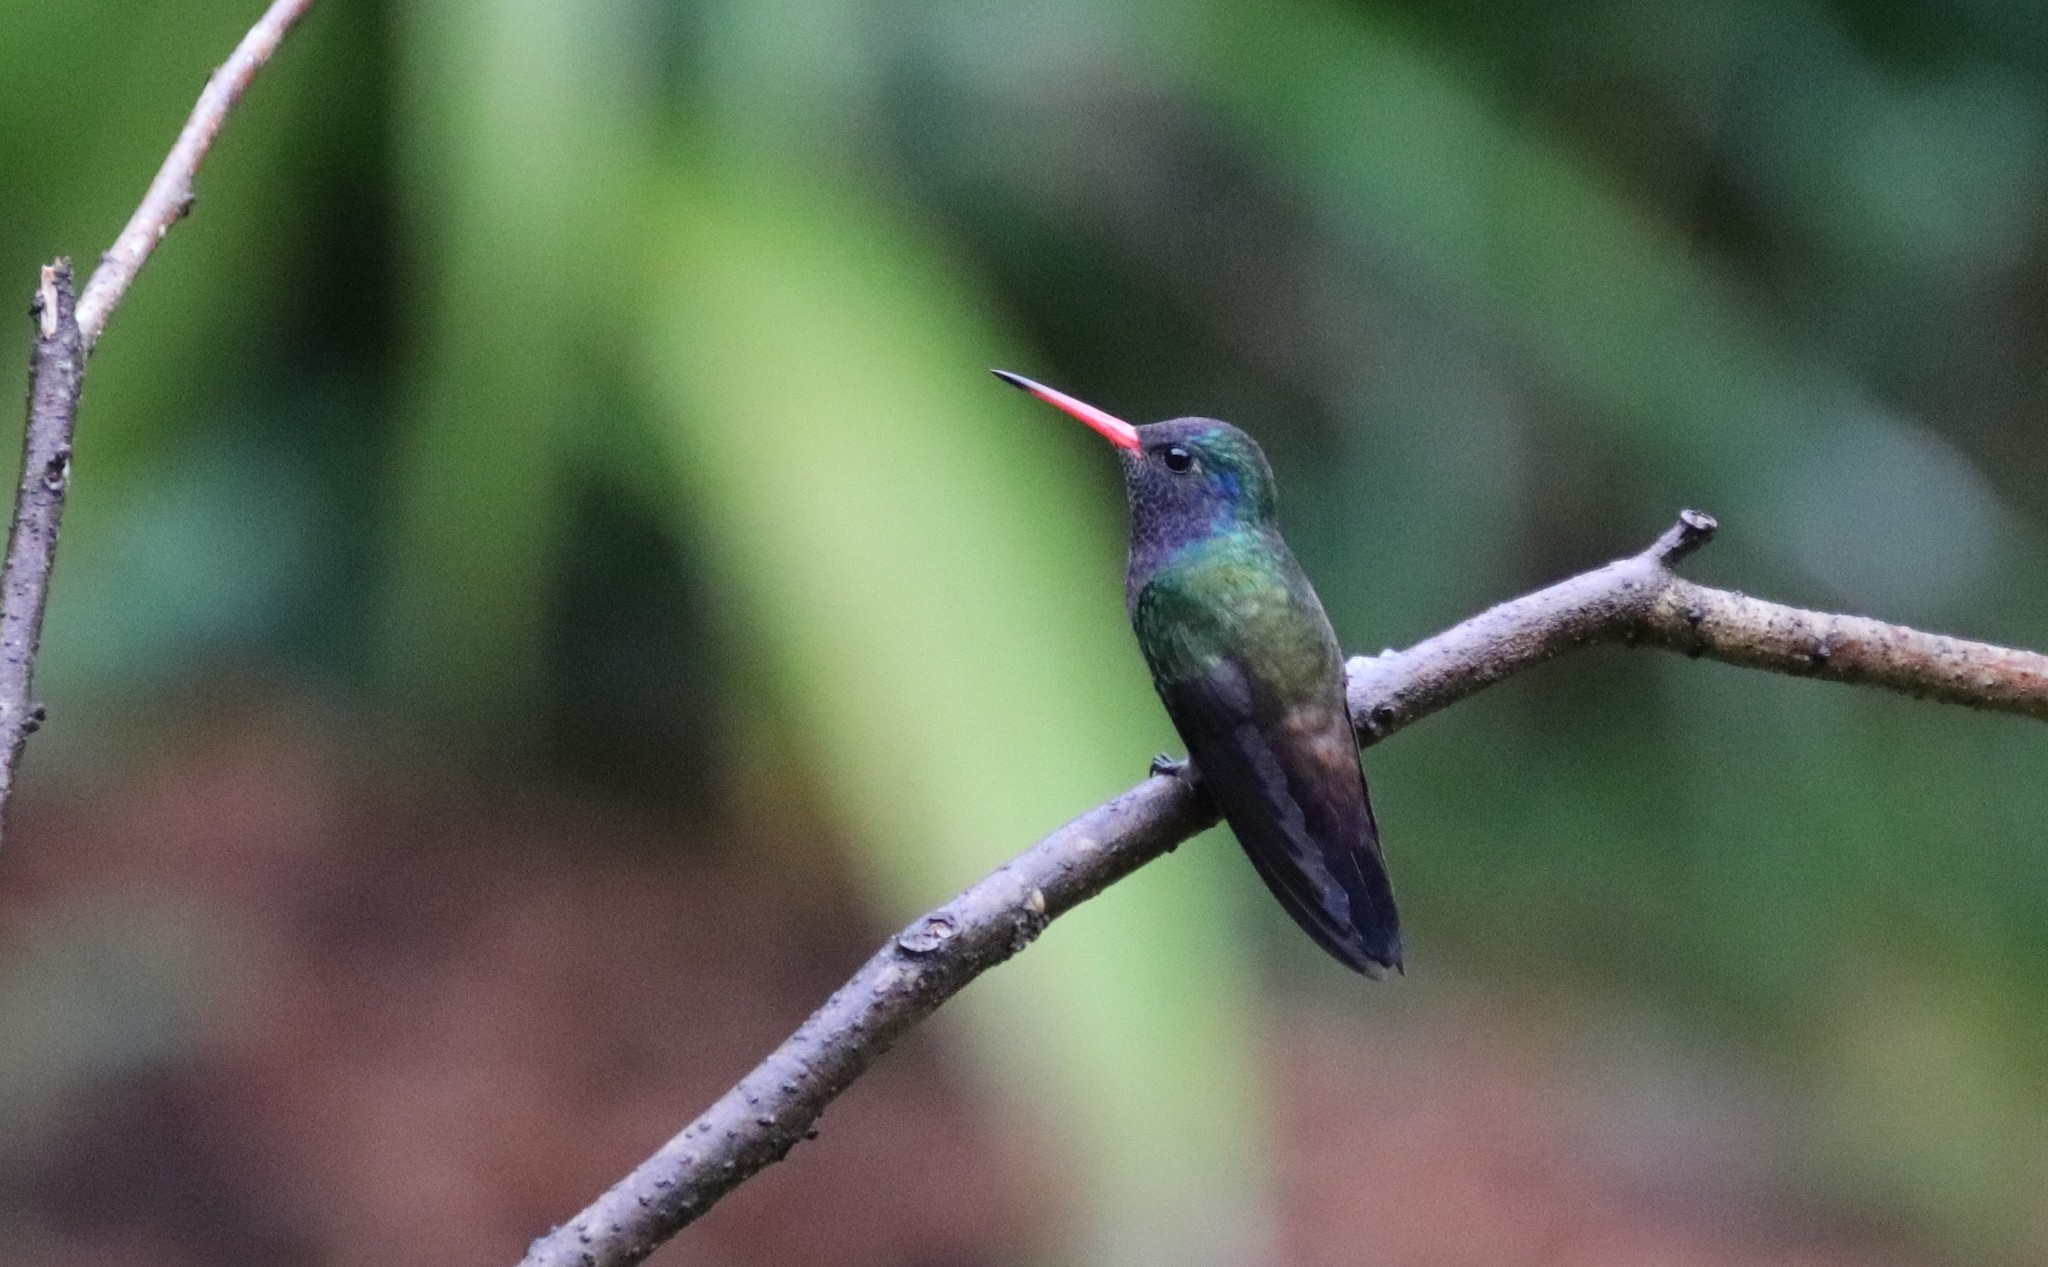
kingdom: Animalia
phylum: Chordata
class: Aves
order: Apodiformes
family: Trochilidae
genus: Chlorestes
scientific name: Chlorestes cyanus
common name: White-chinned sapphire
